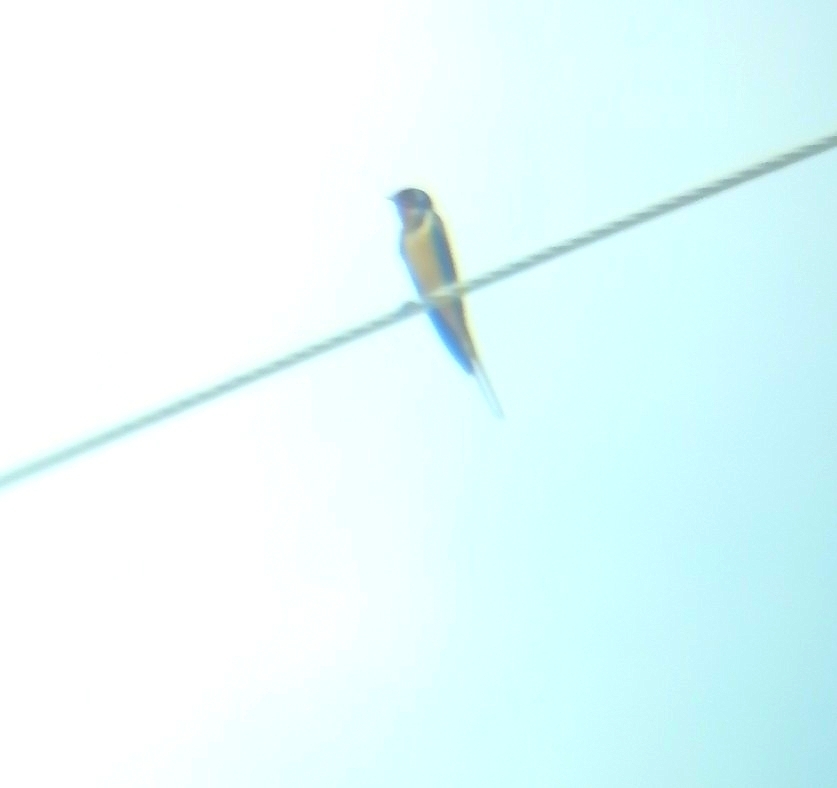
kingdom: Animalia
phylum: Chordata
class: Aves
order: Passeriformes
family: Hirundinidae
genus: Hirundo
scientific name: Hirundo rustica
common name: Barn swallow
